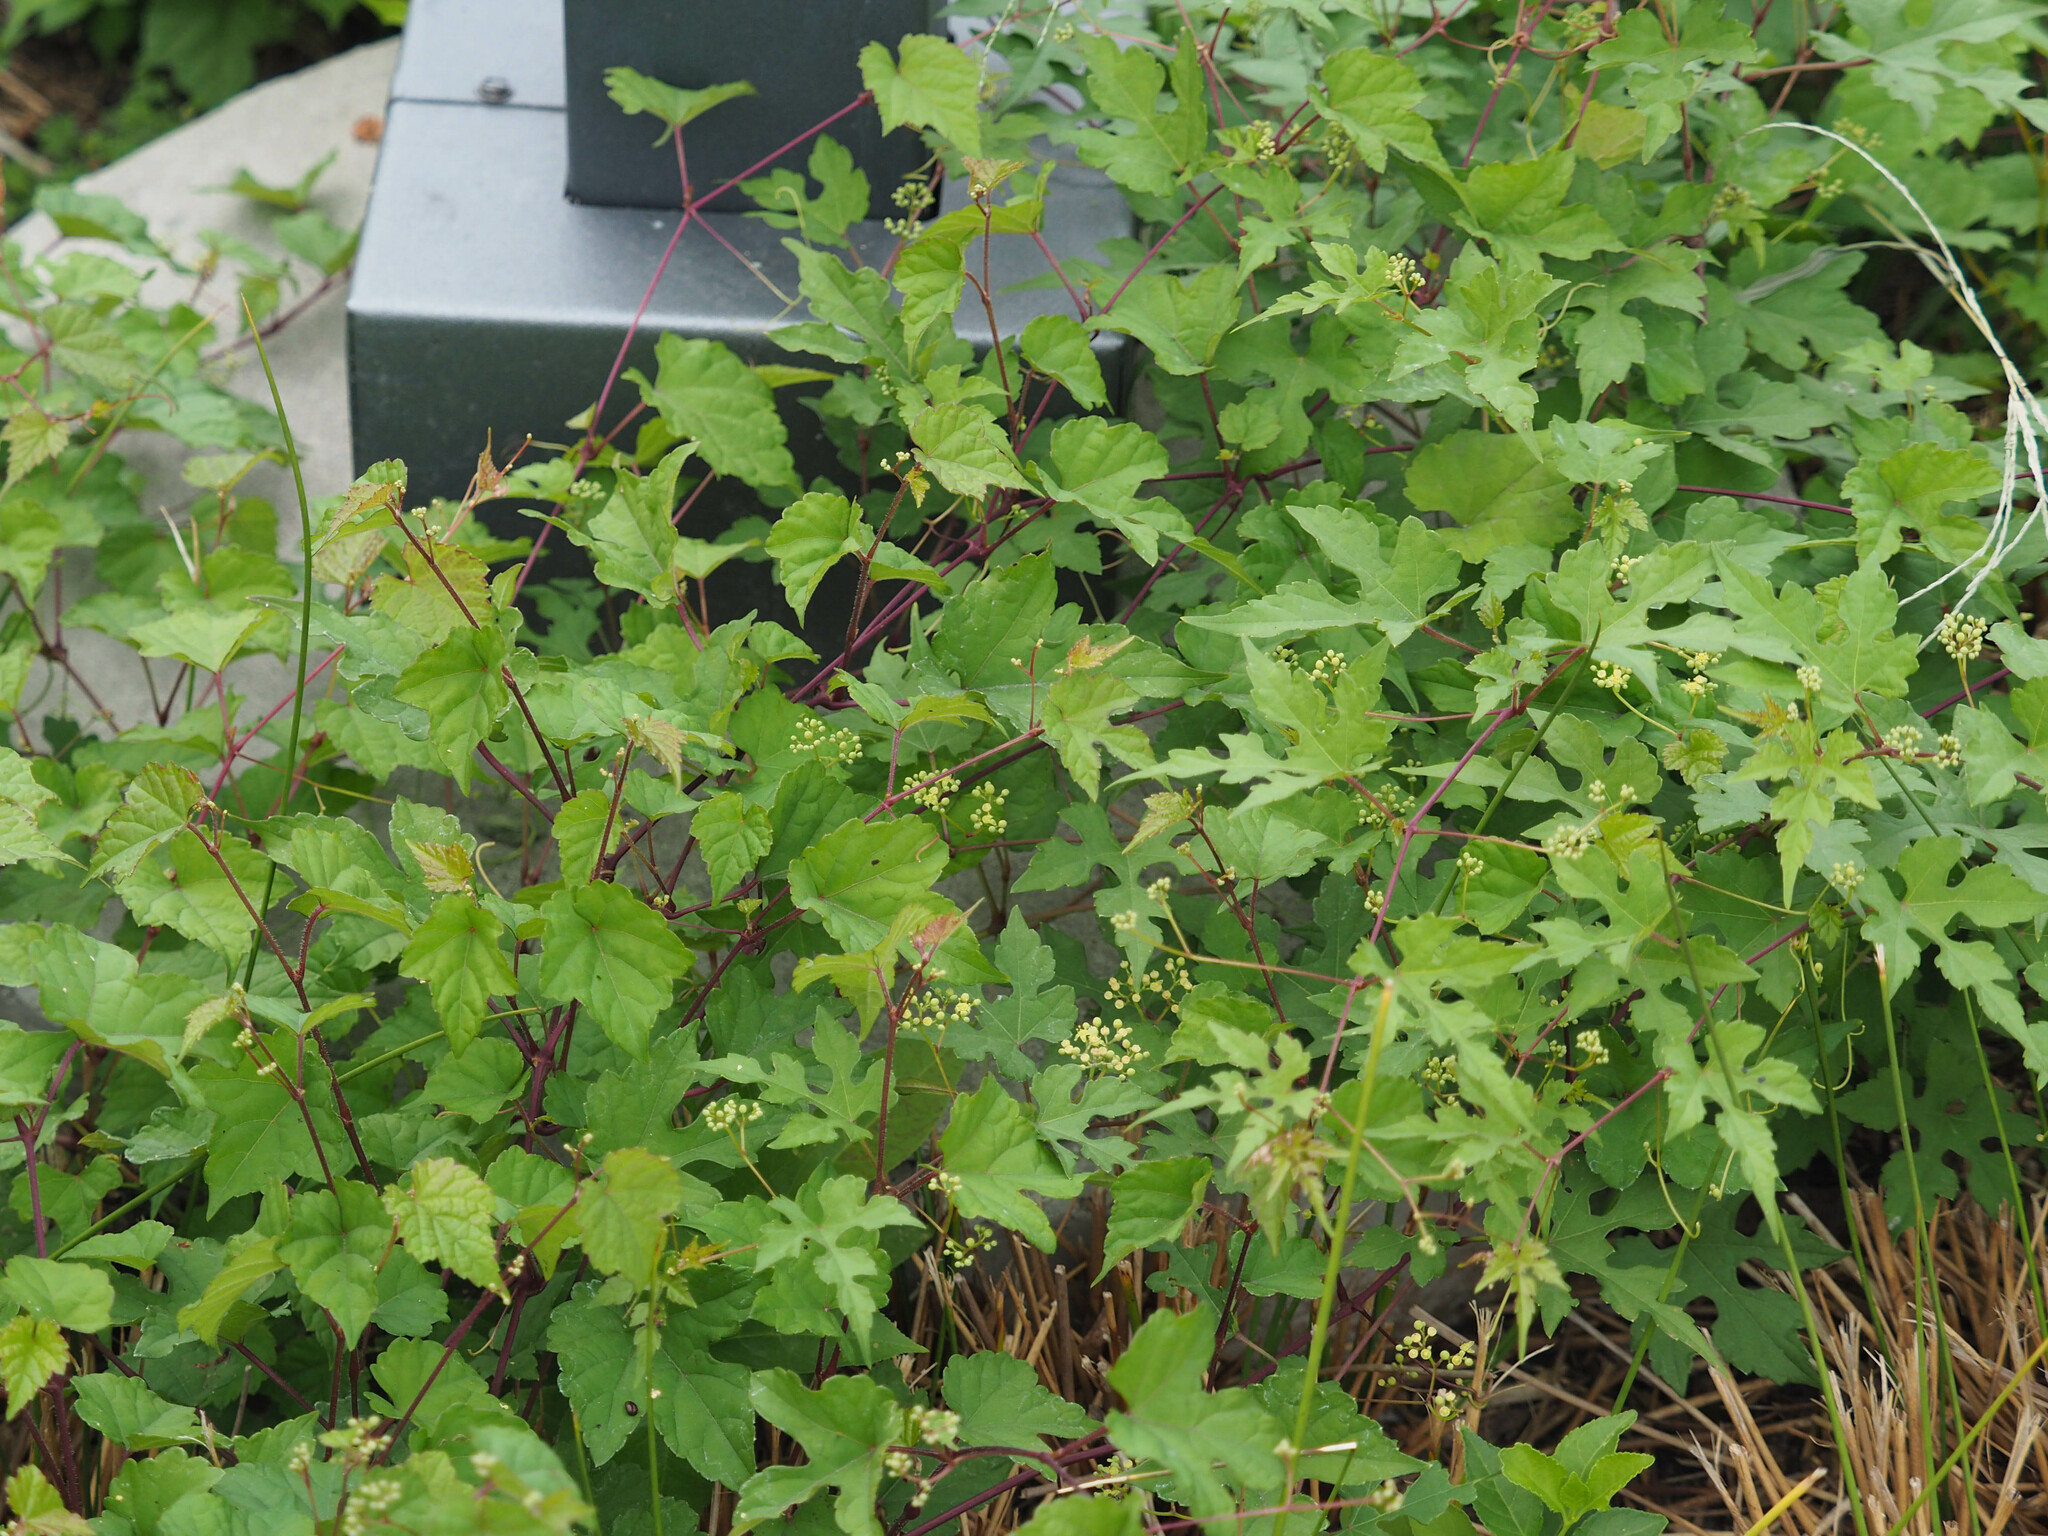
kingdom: Plantae
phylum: Tracheophyta
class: Magnoliopsida
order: Vitales
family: Vitaceae
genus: Ampelopsis
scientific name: Ampelopsis glandulosa
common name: Amur peppervine
